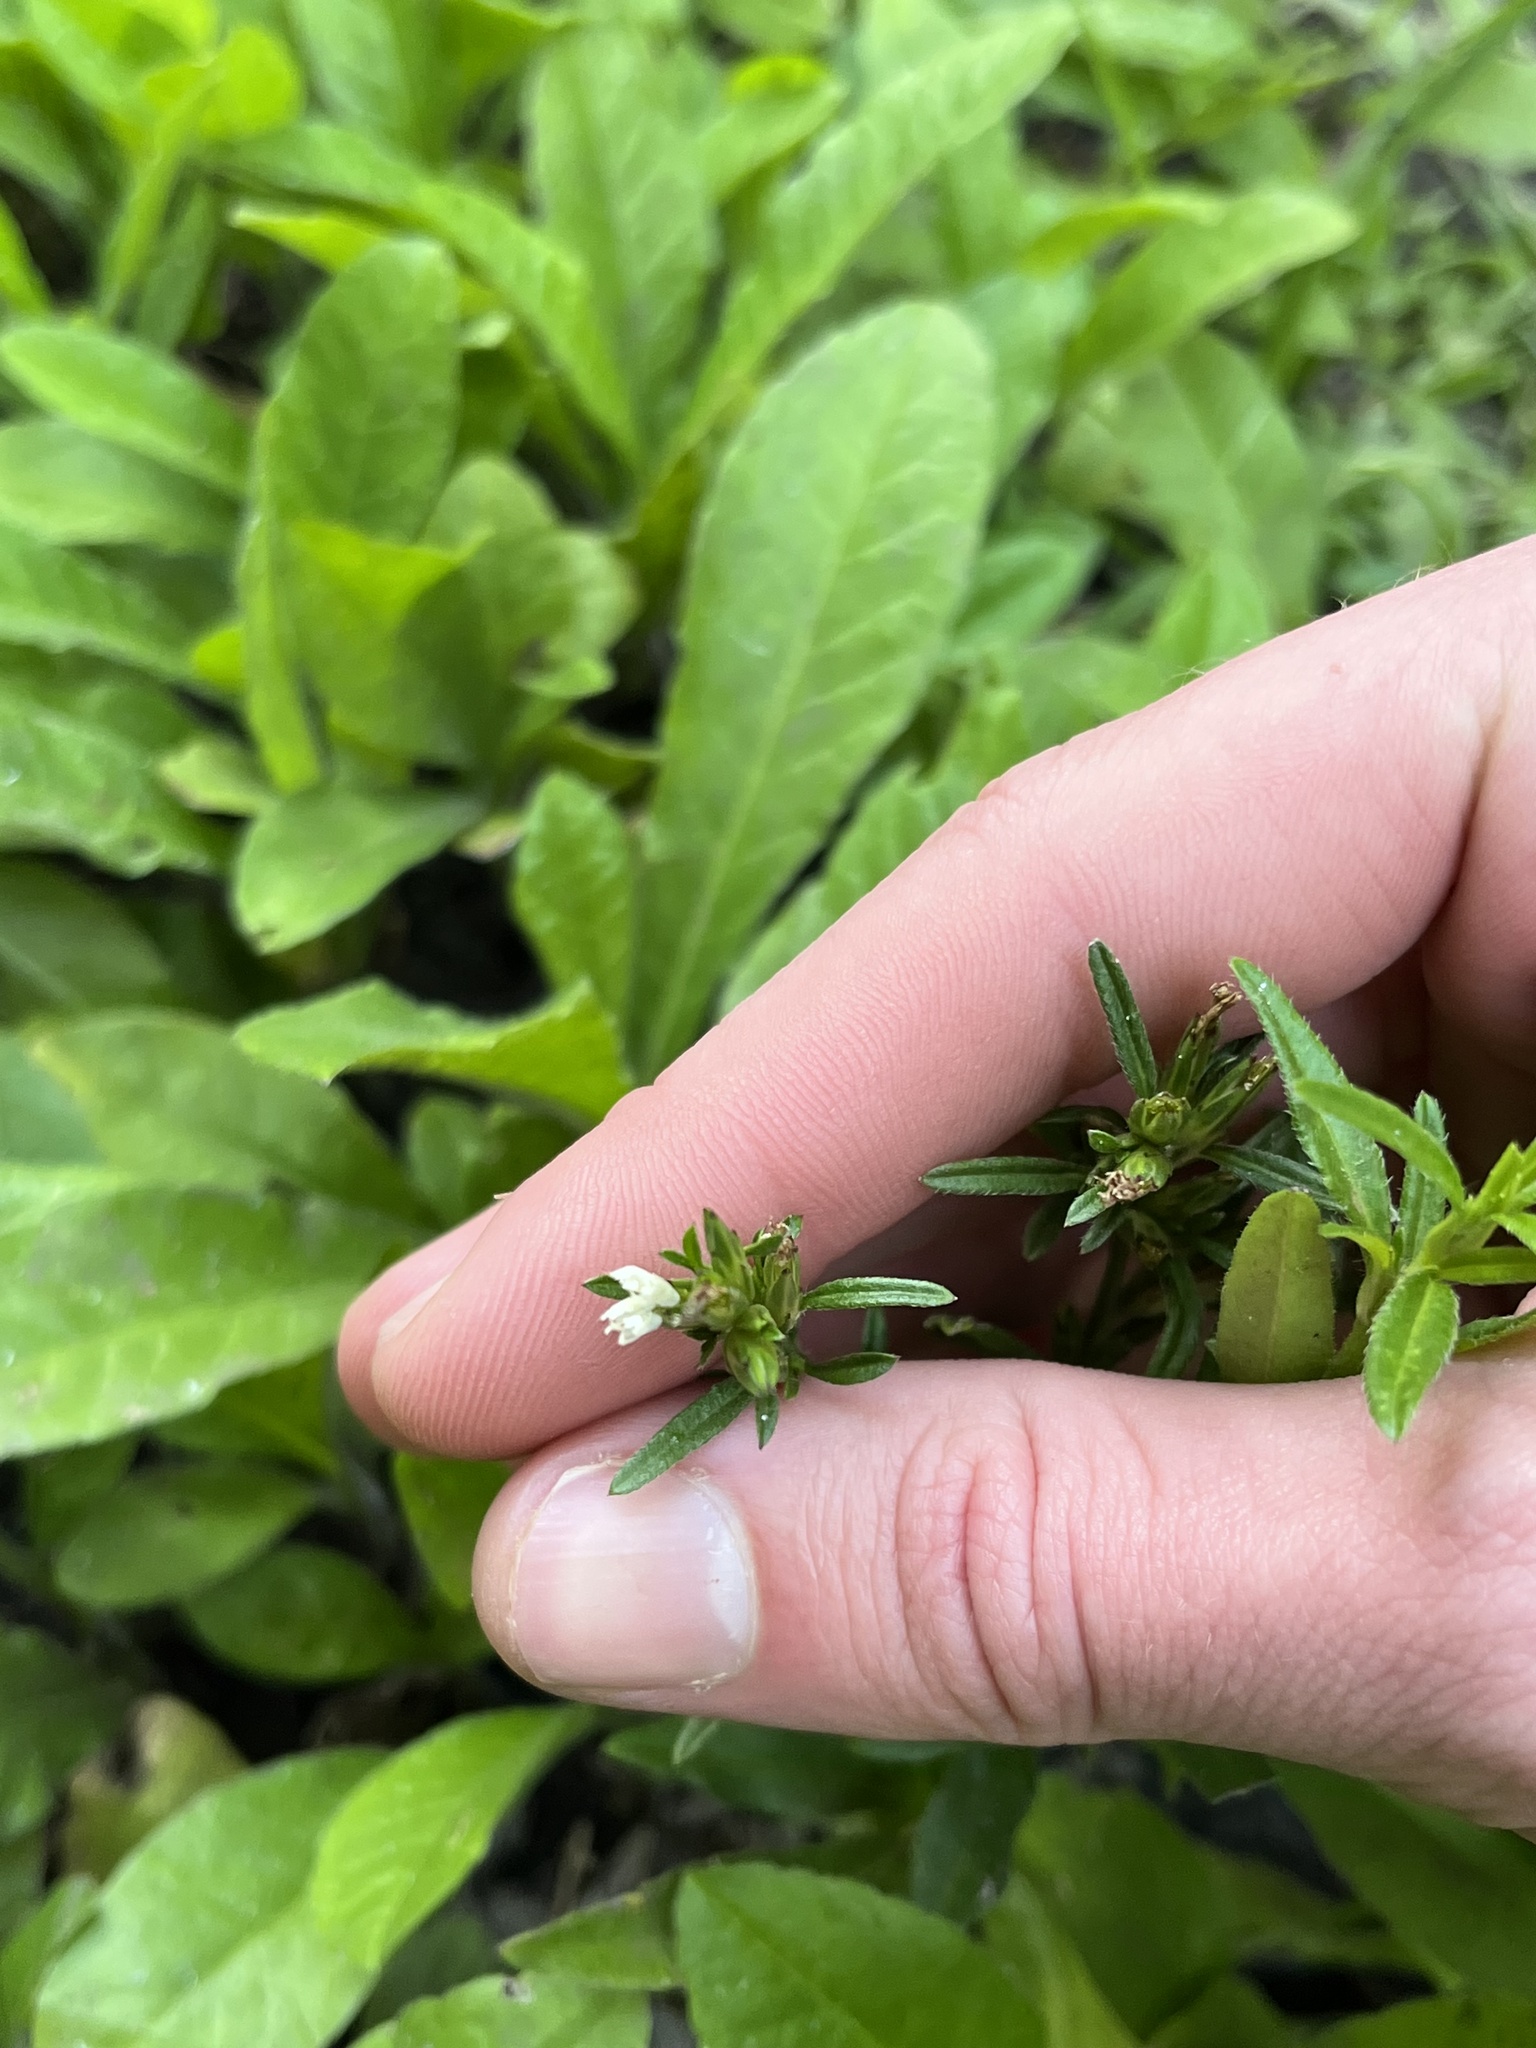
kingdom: Plantae
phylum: Tracheophyta
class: Magnoliopsida
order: Asterales
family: Asteraceae
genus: Pseudelephantopus
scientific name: Pseudelephantopus spicatus
